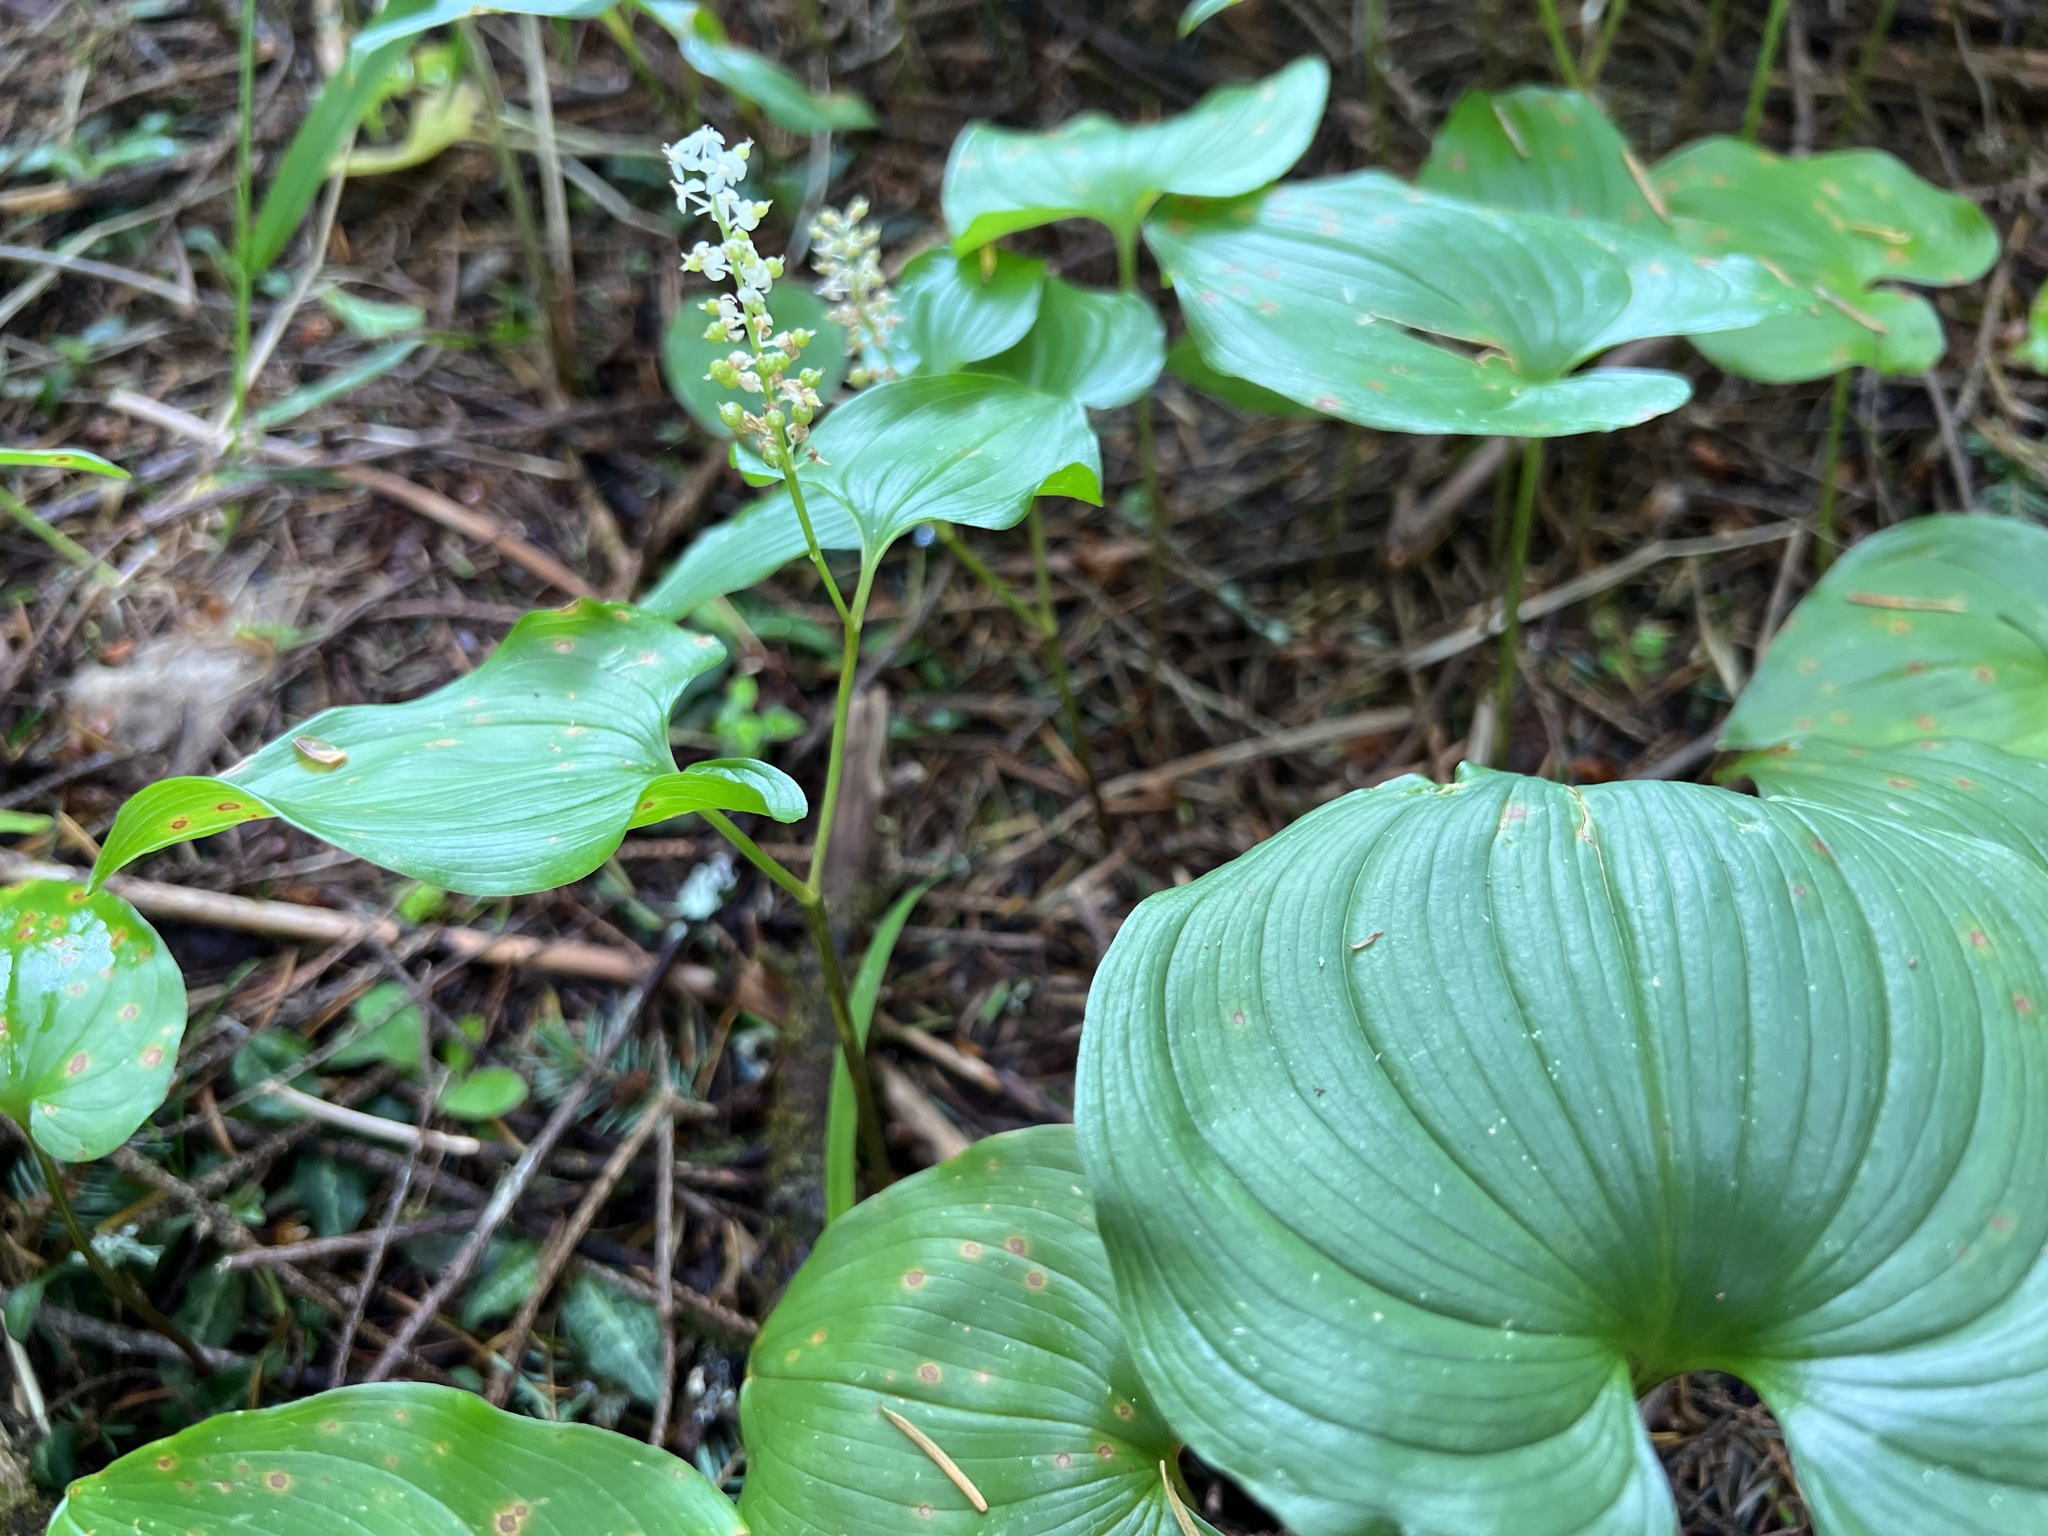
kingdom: Plantae
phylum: Tracheophyta
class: Liliopsida
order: Asparagales
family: Asparagaceae
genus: Maianthemum
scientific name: Maianthemum dilatatum
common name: False lily-of-the-valley
